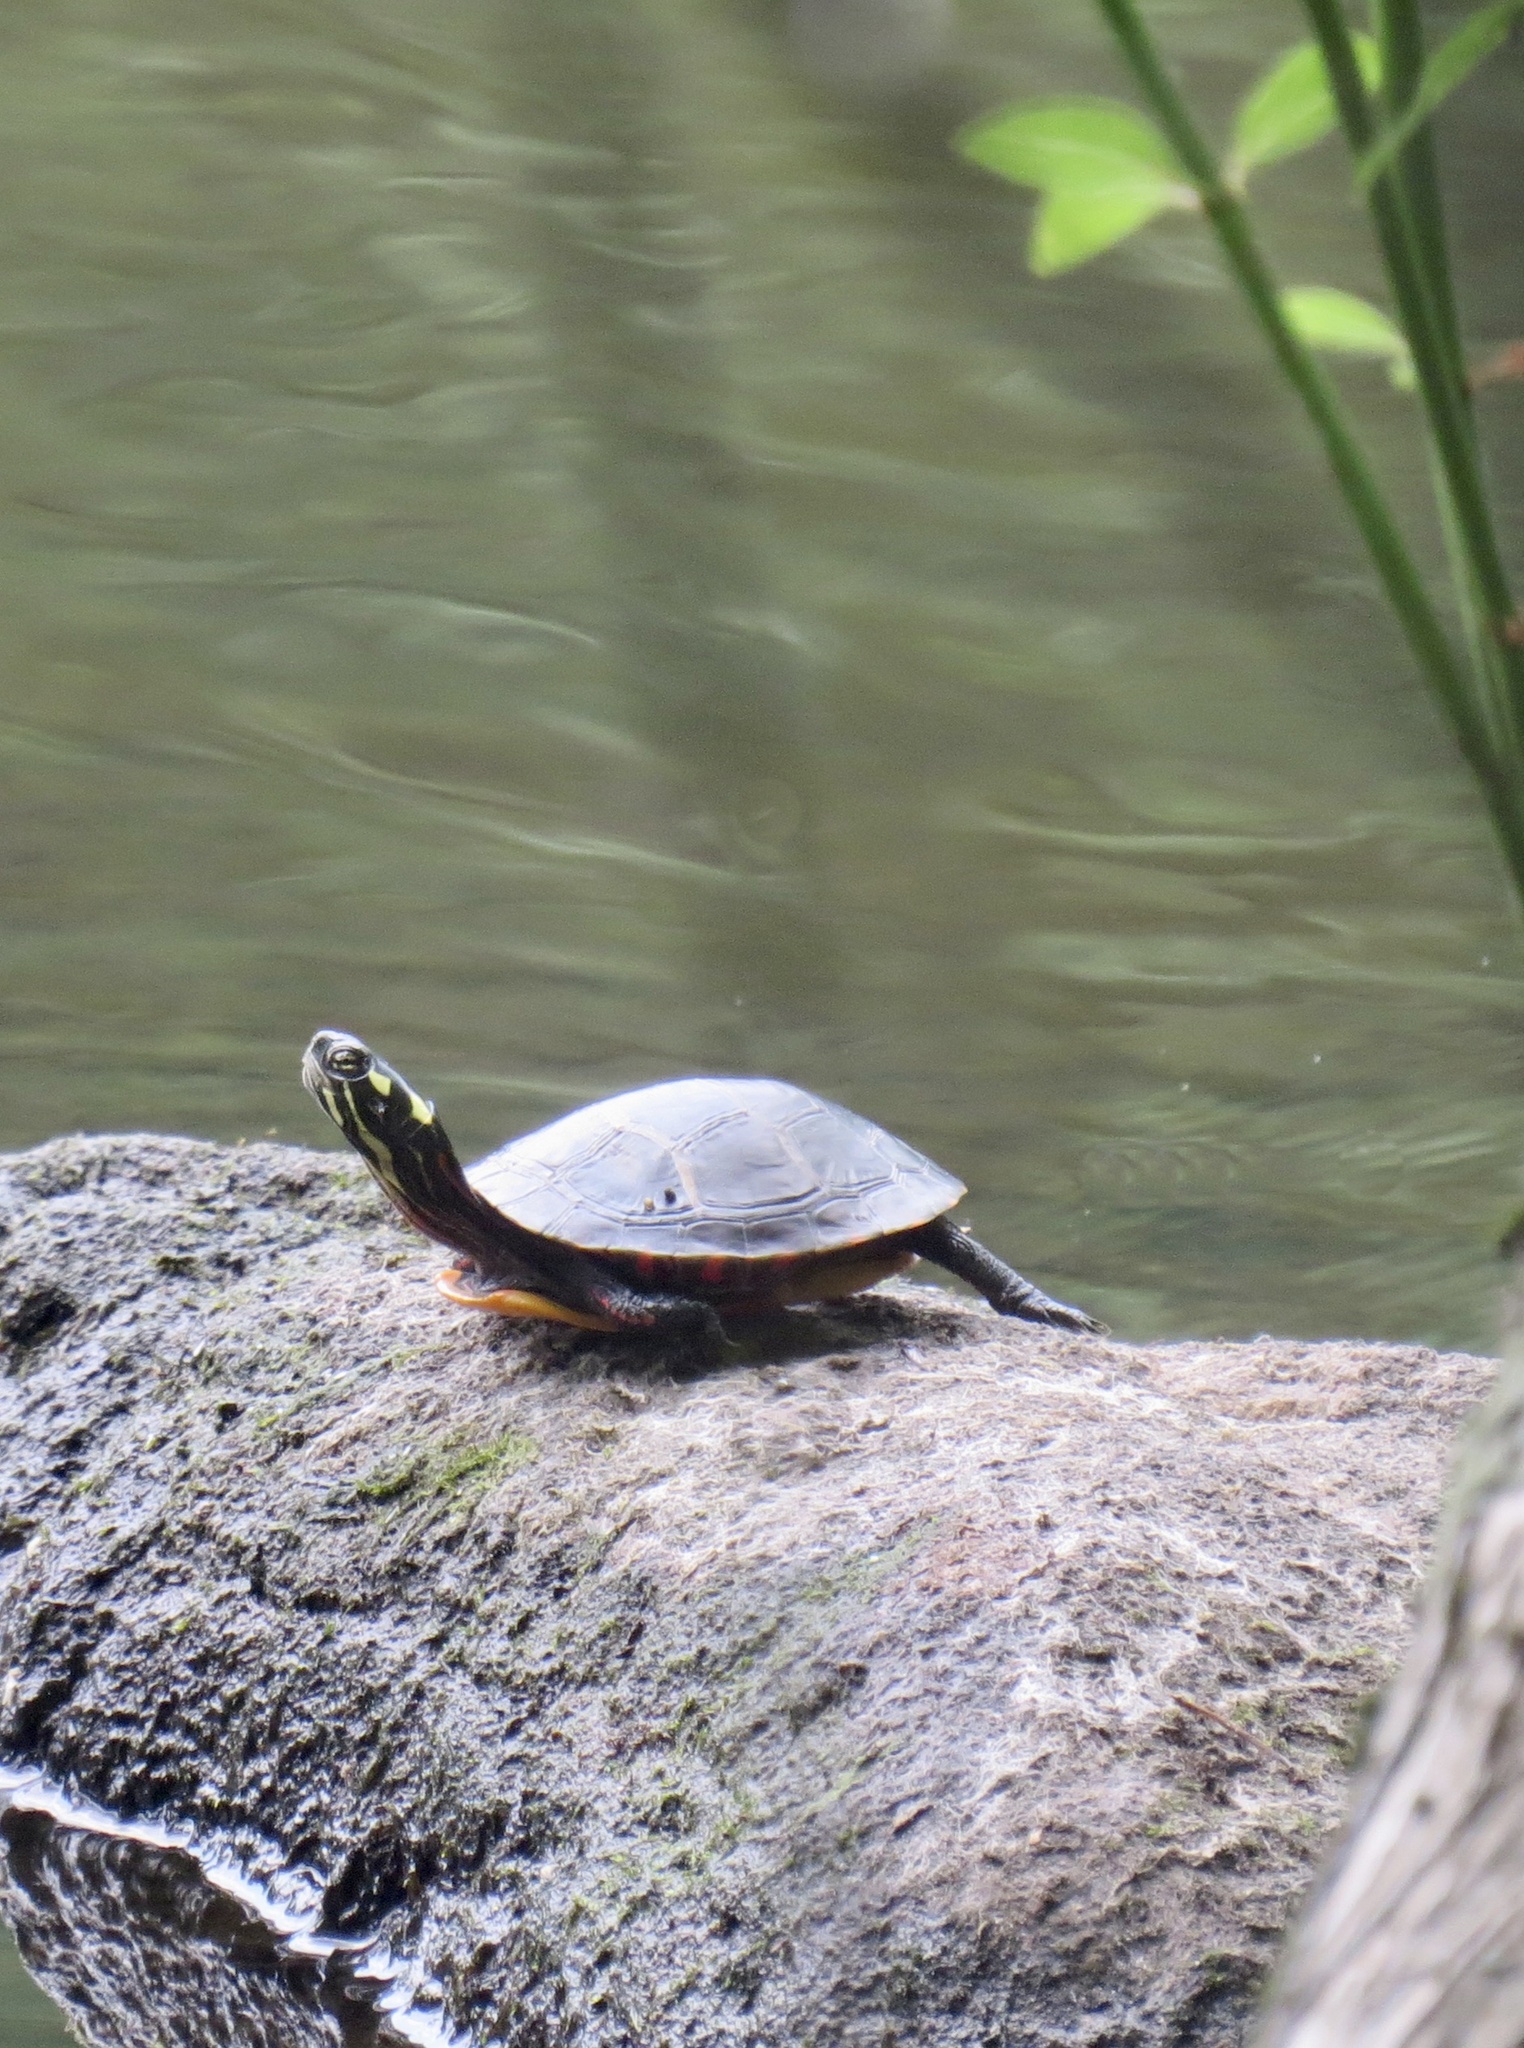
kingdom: Animalia
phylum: Chordata
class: Testudines
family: Emydidae
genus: Chrysemys
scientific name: Chrysemys picta
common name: Painted turtle
